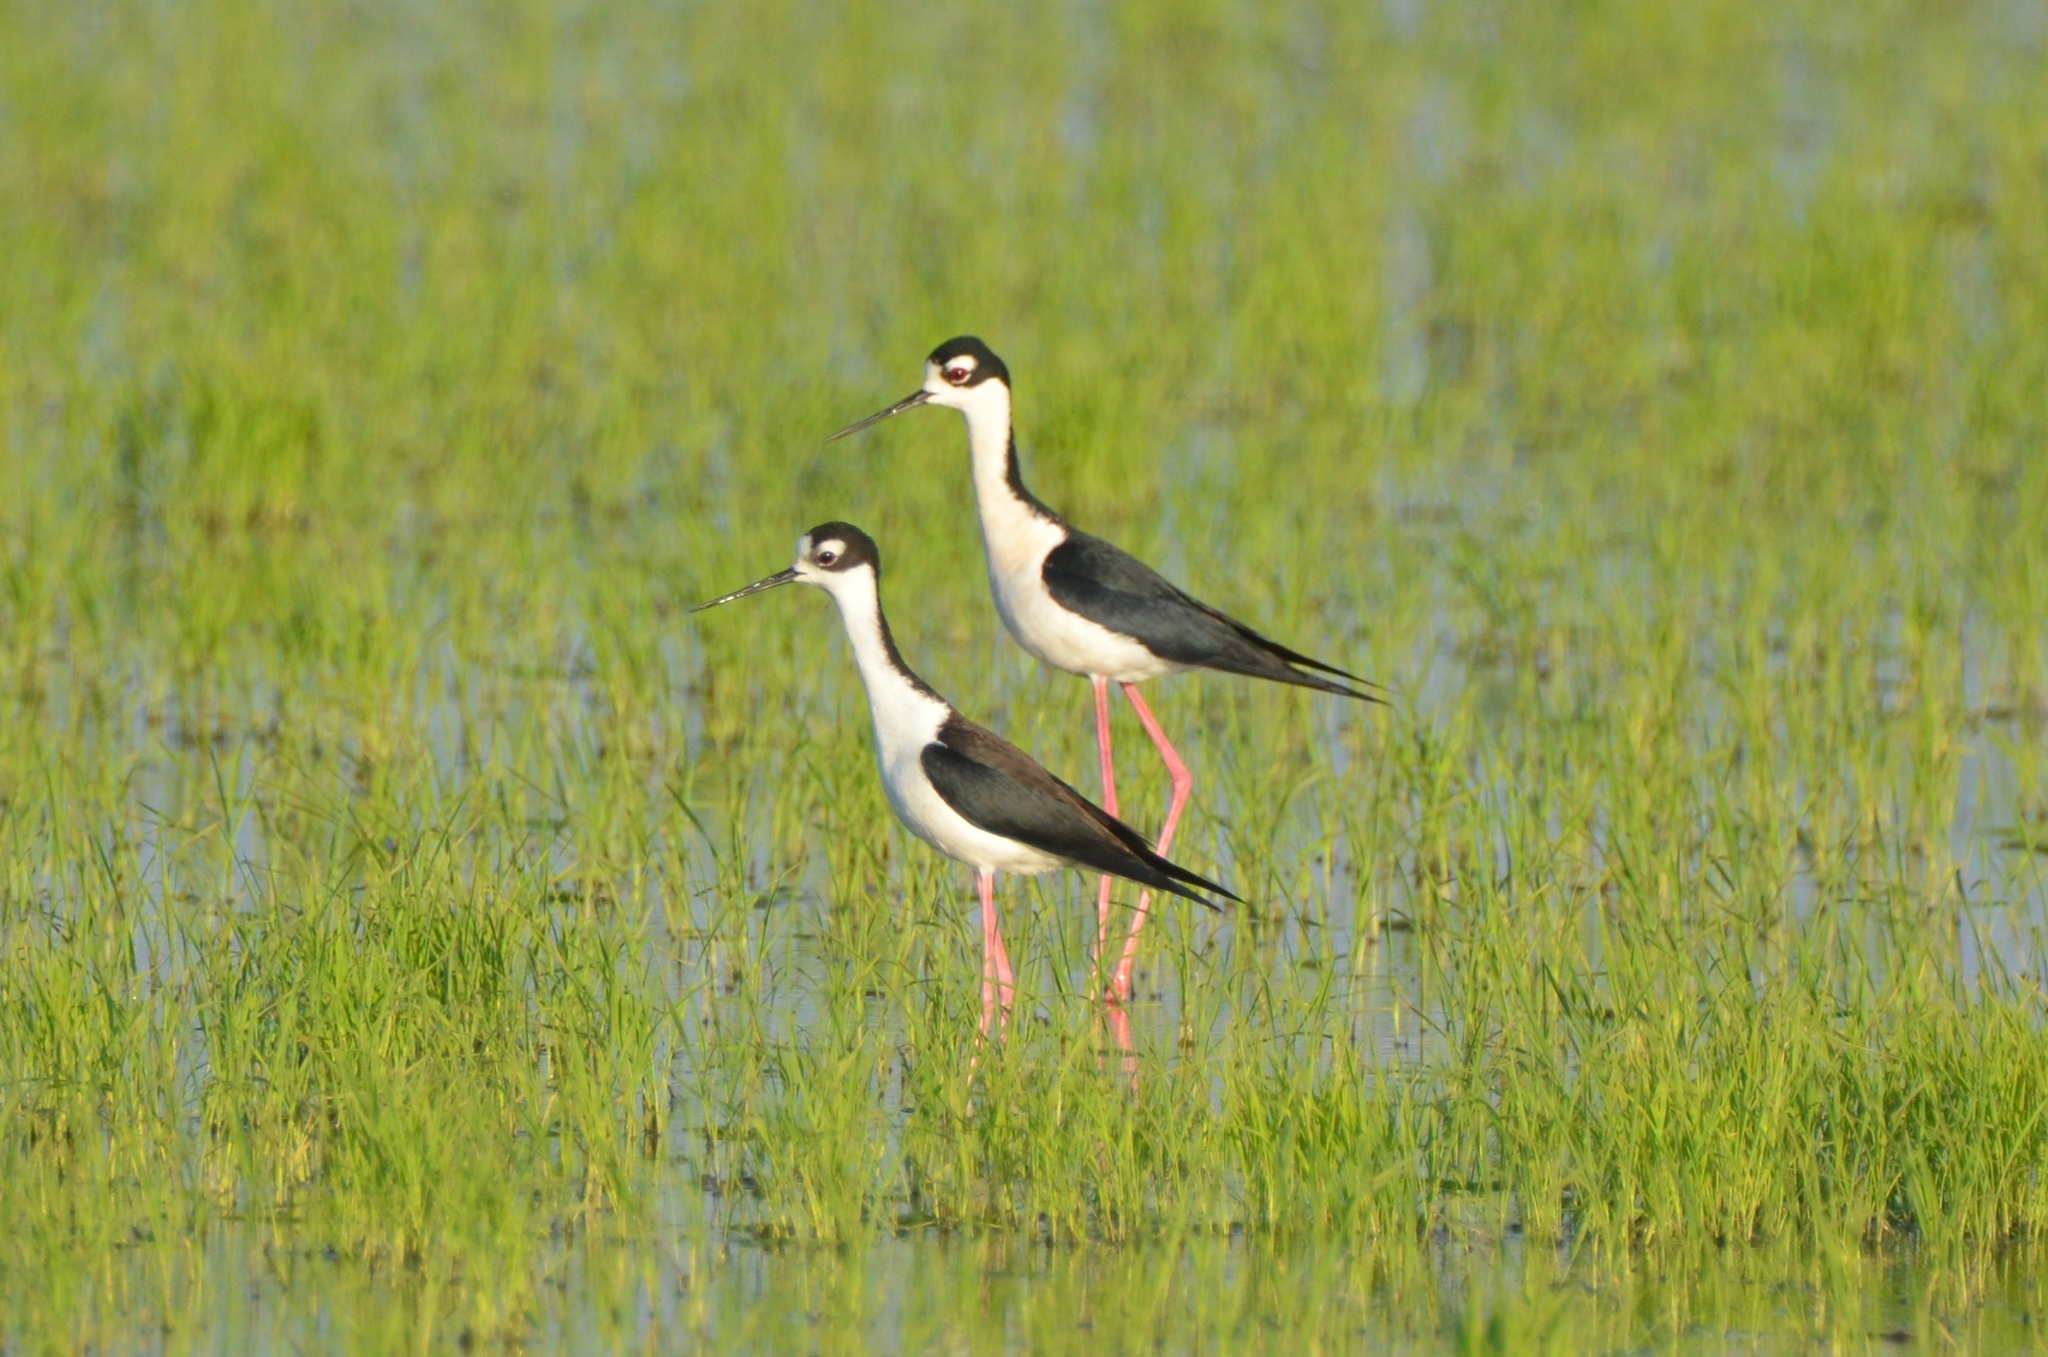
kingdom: Animalia
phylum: Chordata
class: Aves
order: Charadriiformes
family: Recurvirostridae
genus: Himantopus
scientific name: Himantopus mexicanus
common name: Black-necked stilt
